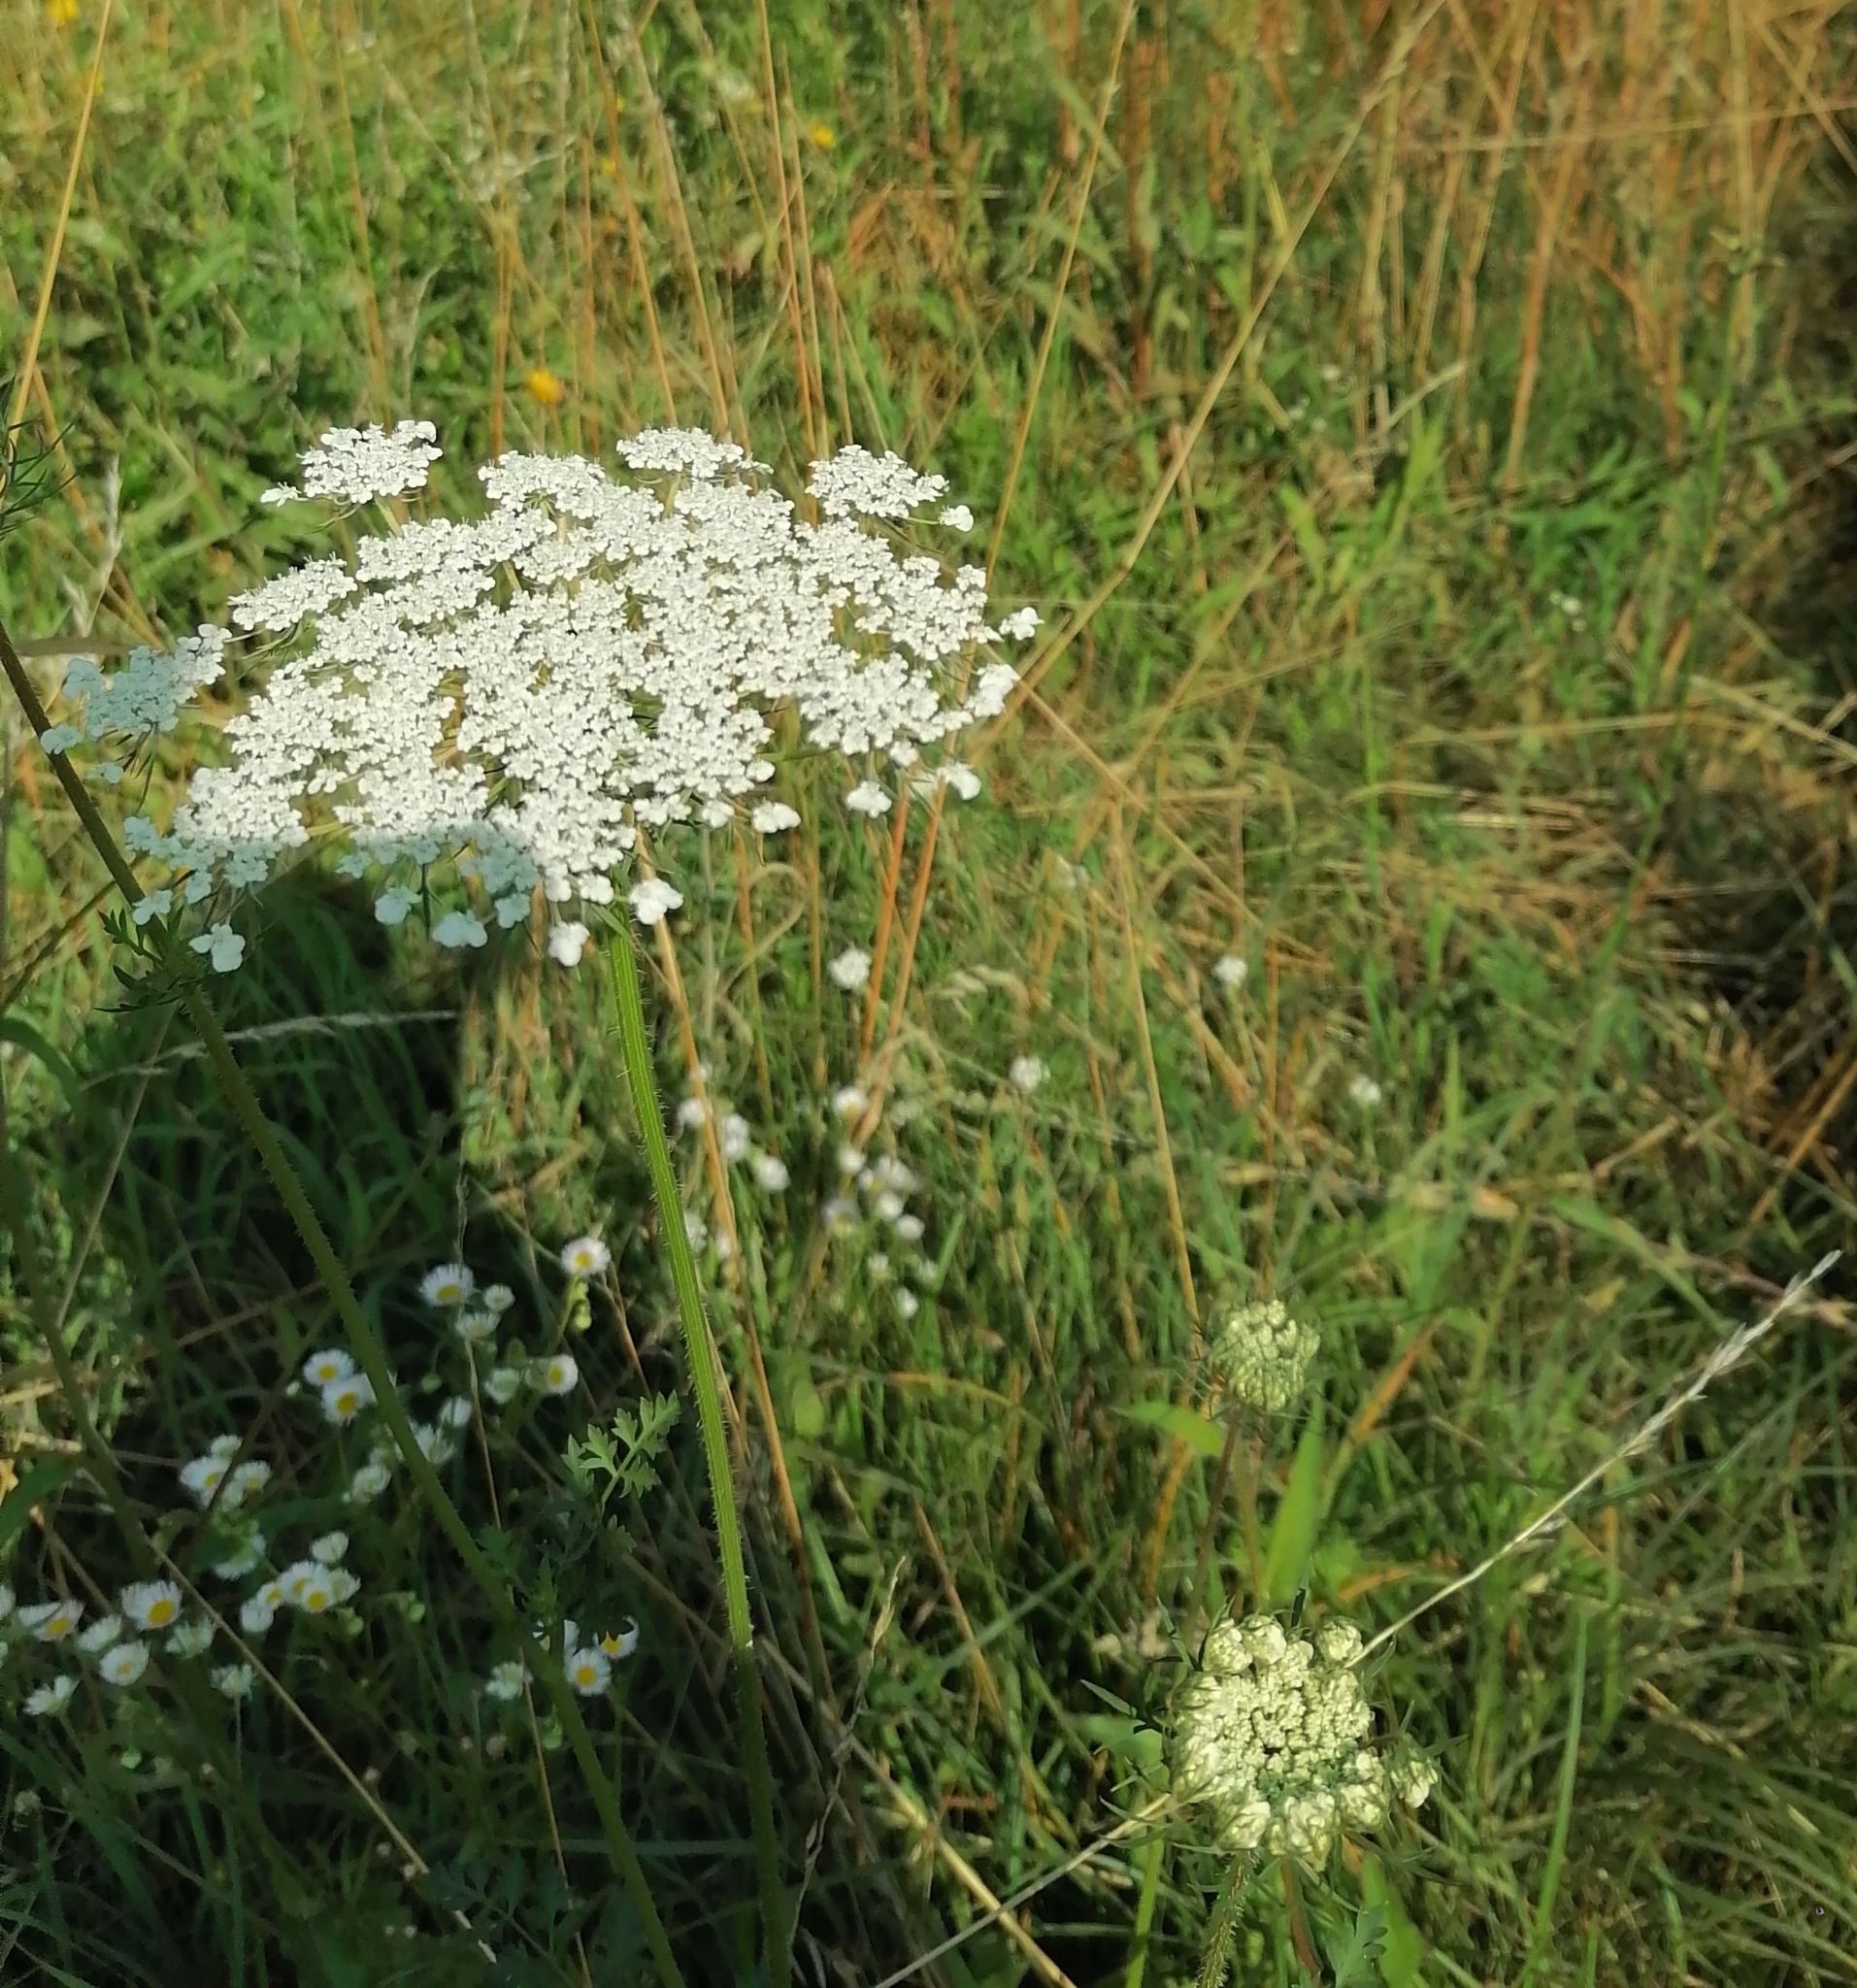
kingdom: Plantae
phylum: Tracheophyta
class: Magnoliopsida
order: Apiales
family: Apiaceae
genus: Daucus
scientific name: Daucus carota
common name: Wild carrot
